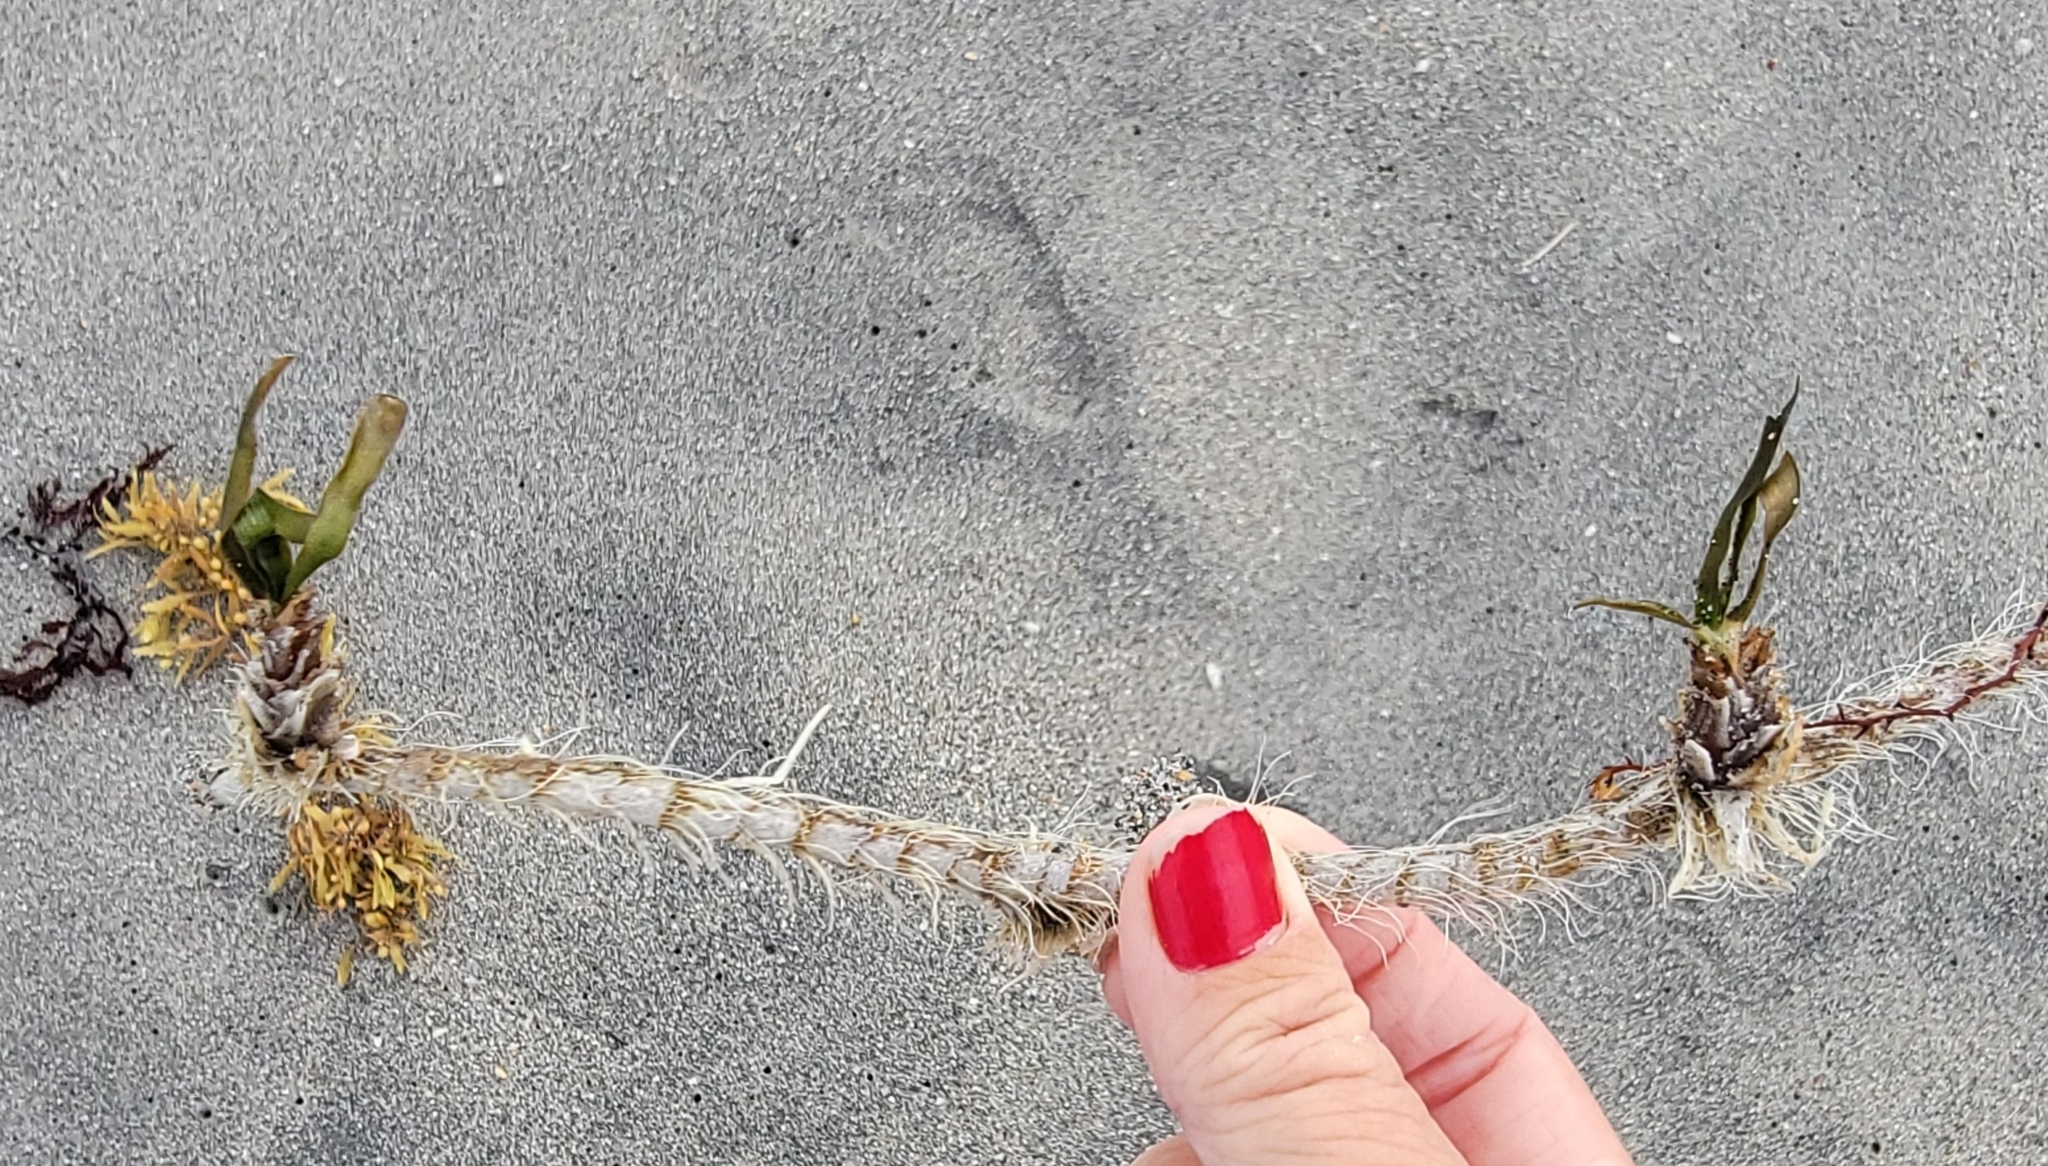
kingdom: Plantae
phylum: Tracheophyta
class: Liliopsida
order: Alismatales
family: Hydrocharitaceae
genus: Thalassia
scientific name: Thalassia testudinum
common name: Species code: tt
